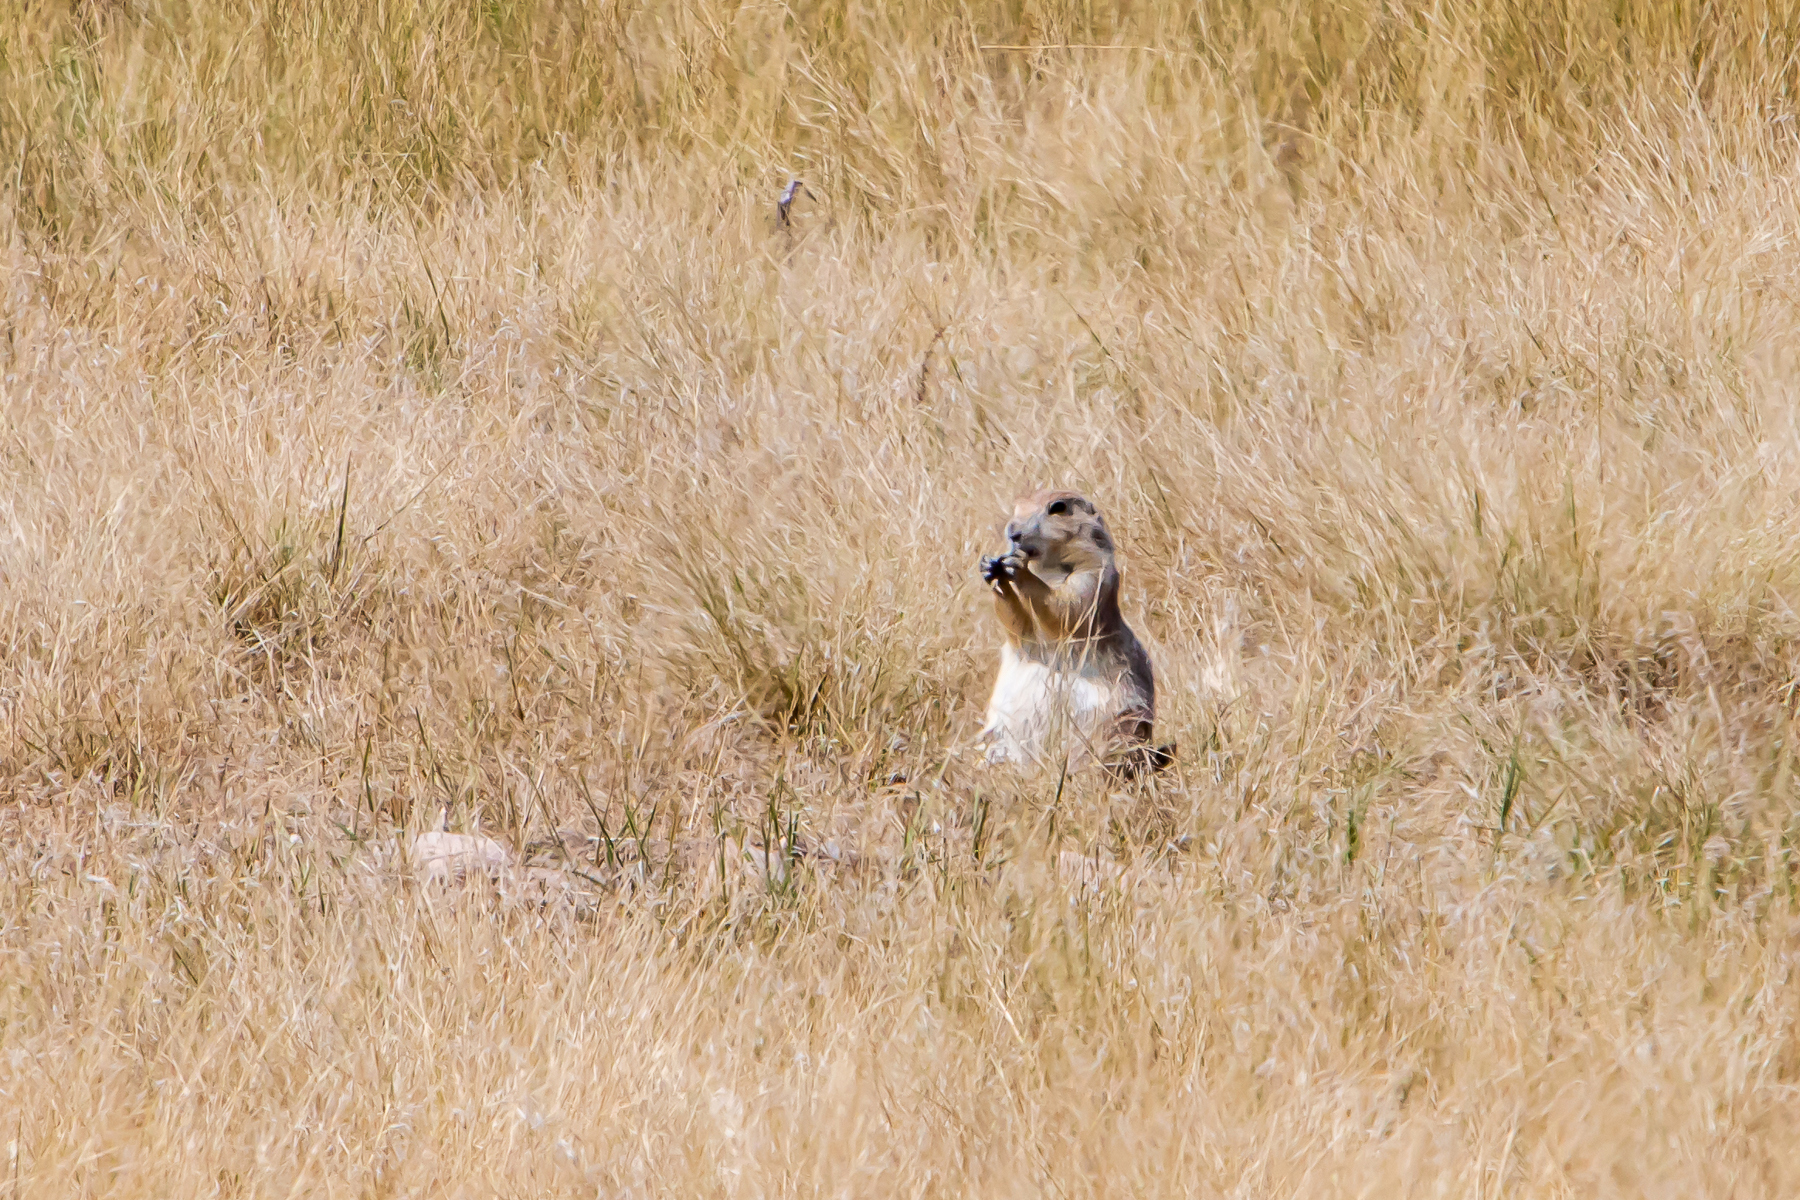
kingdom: Animalia
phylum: Chordata
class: Mammalia
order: Rodentia
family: Sciuridae
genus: Cynomys
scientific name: Cynomys ludovicianus
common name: Black-tailed prairie dog
